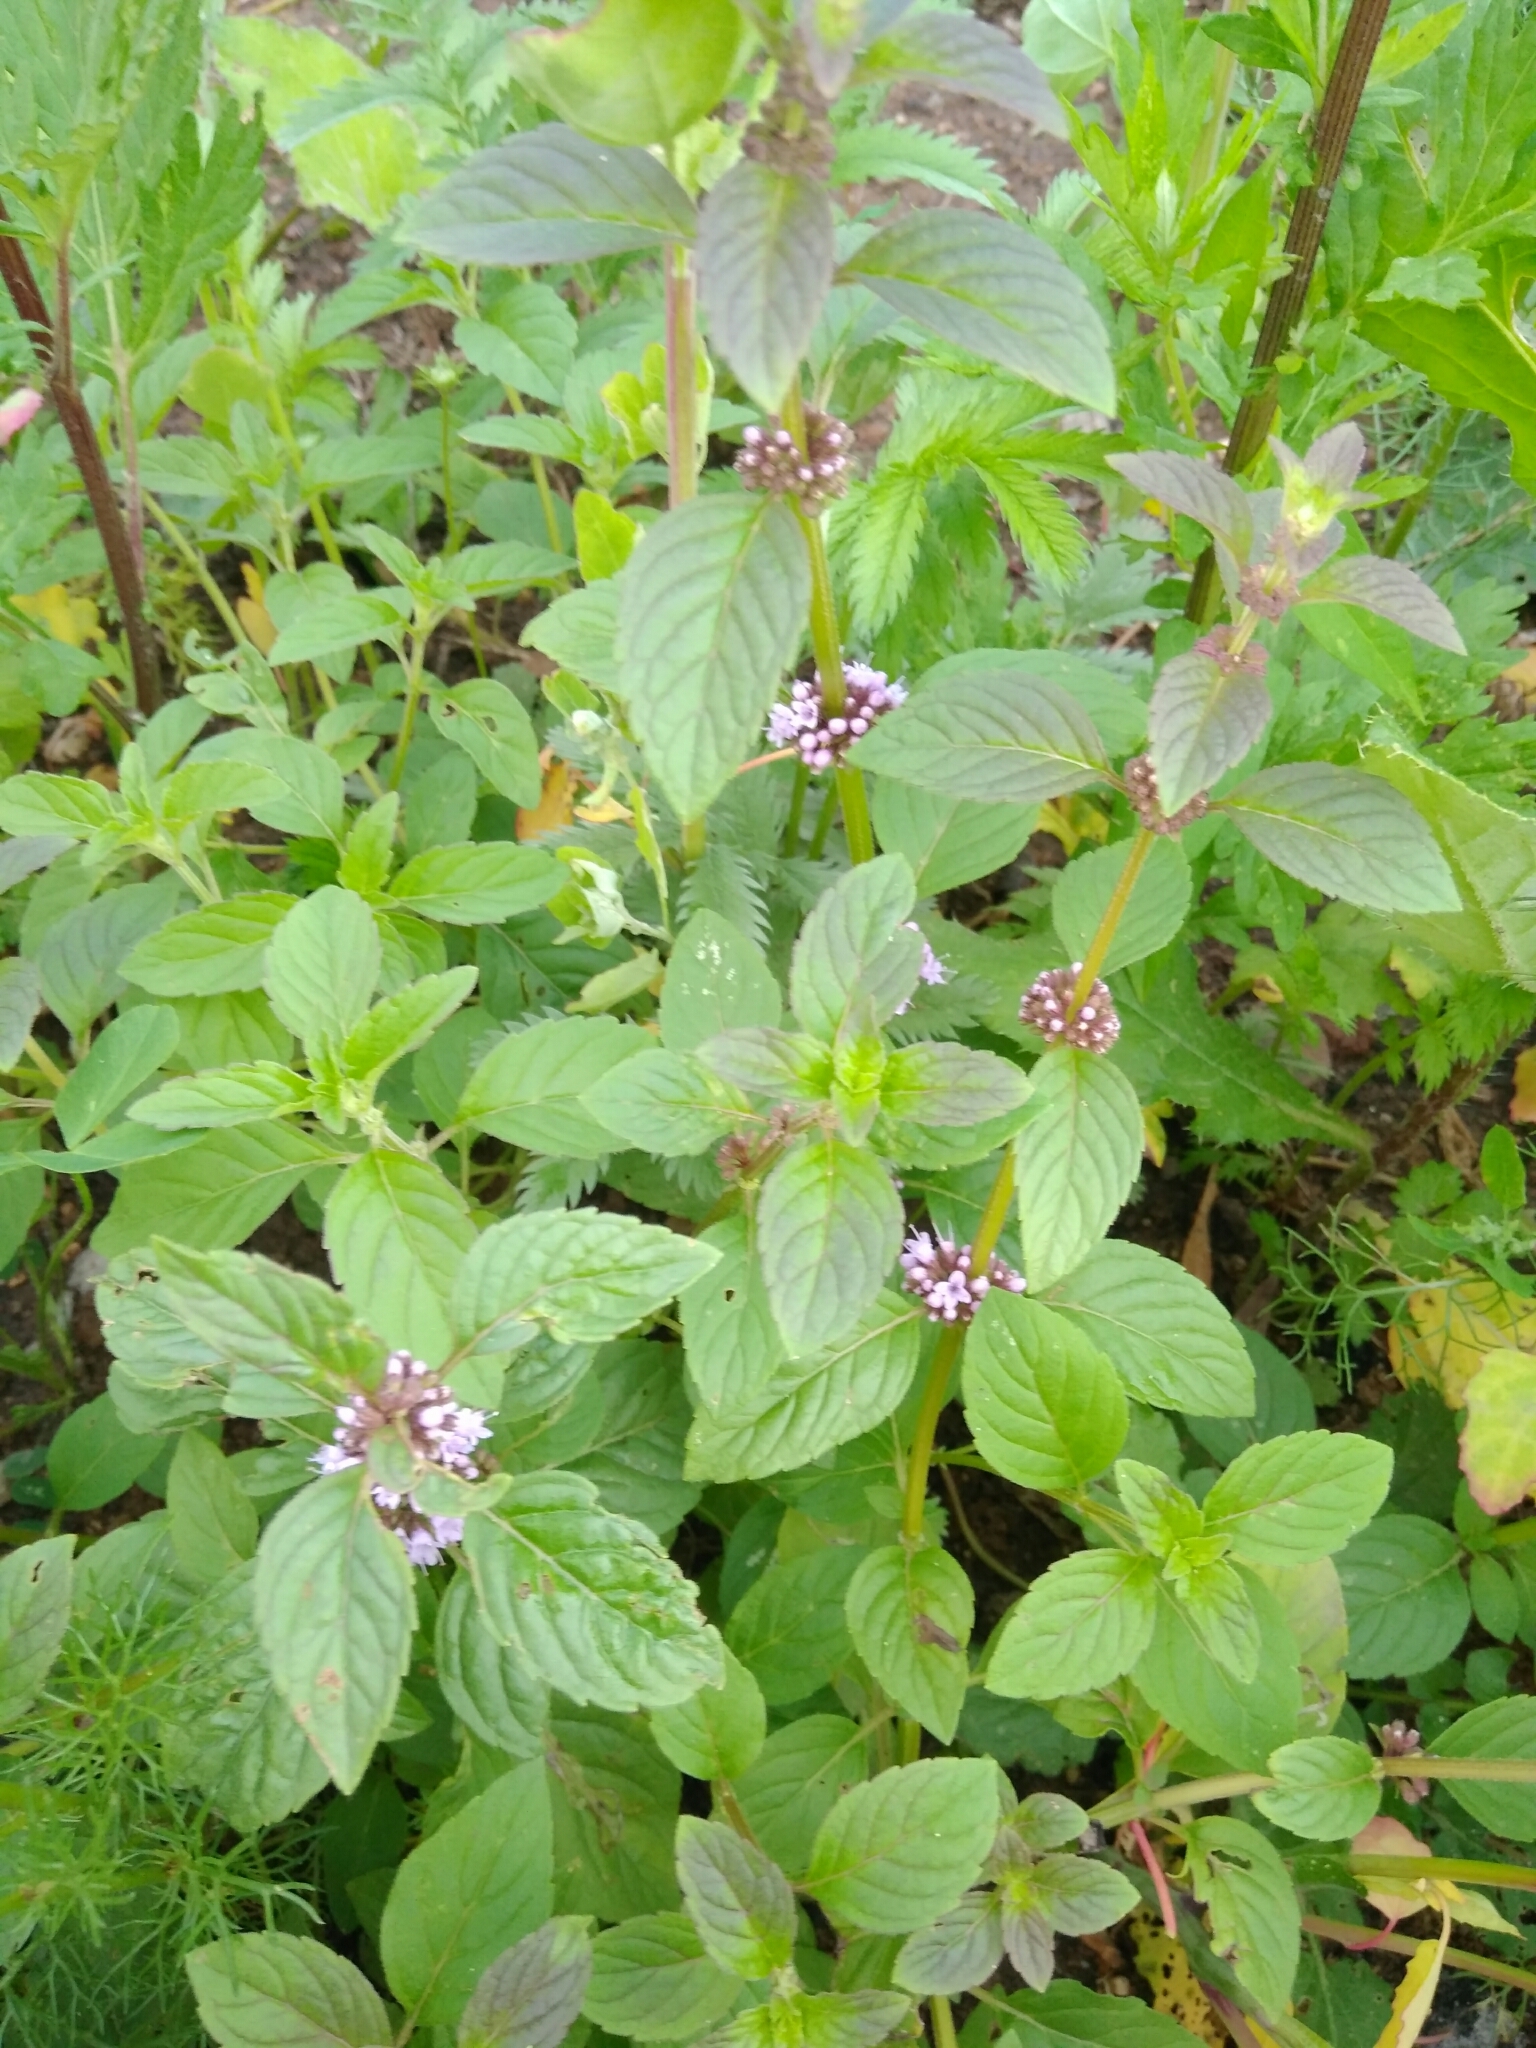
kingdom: Plantae
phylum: Tracheophyta
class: Magnoliopsida
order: Lamiales
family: Lamiaceae
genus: Mentha
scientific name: Mentha arvensis
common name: Corn mint
